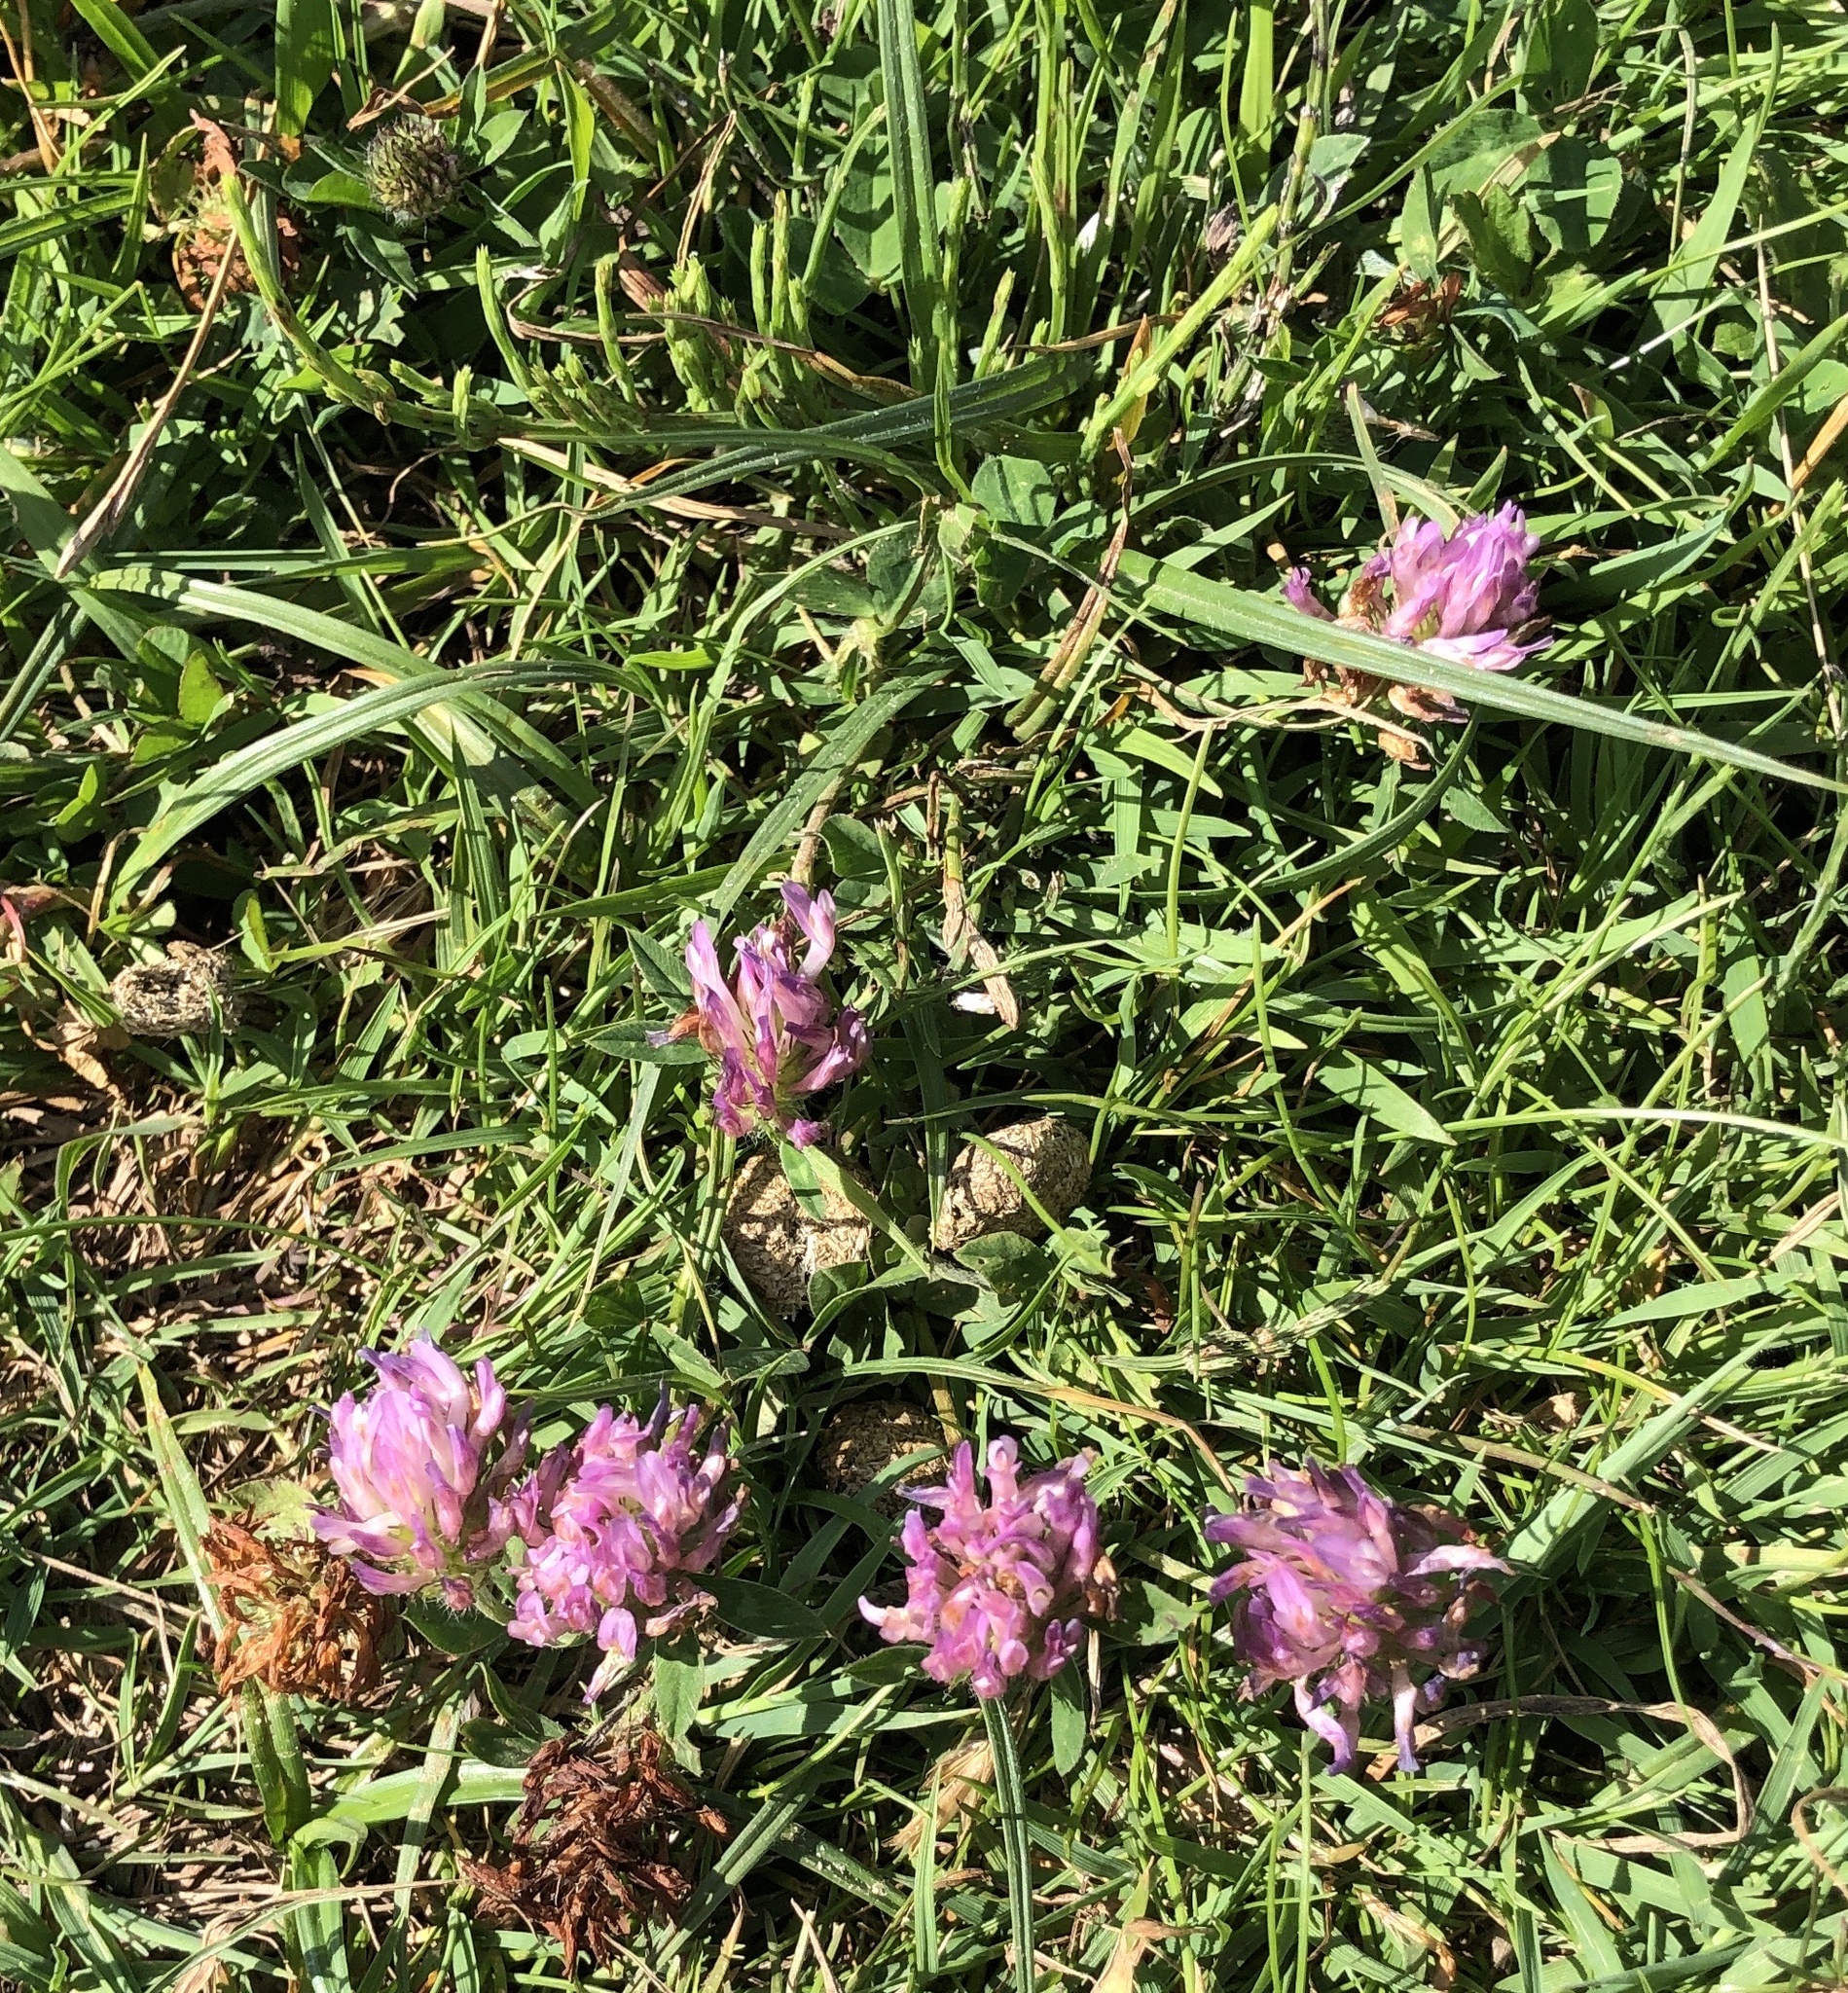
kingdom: Plantae
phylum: Tracheophyta
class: Magnoliopsida
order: Fabales
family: Fabaceae
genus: Trifolium
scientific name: Trifolium pratense
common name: Red clover
